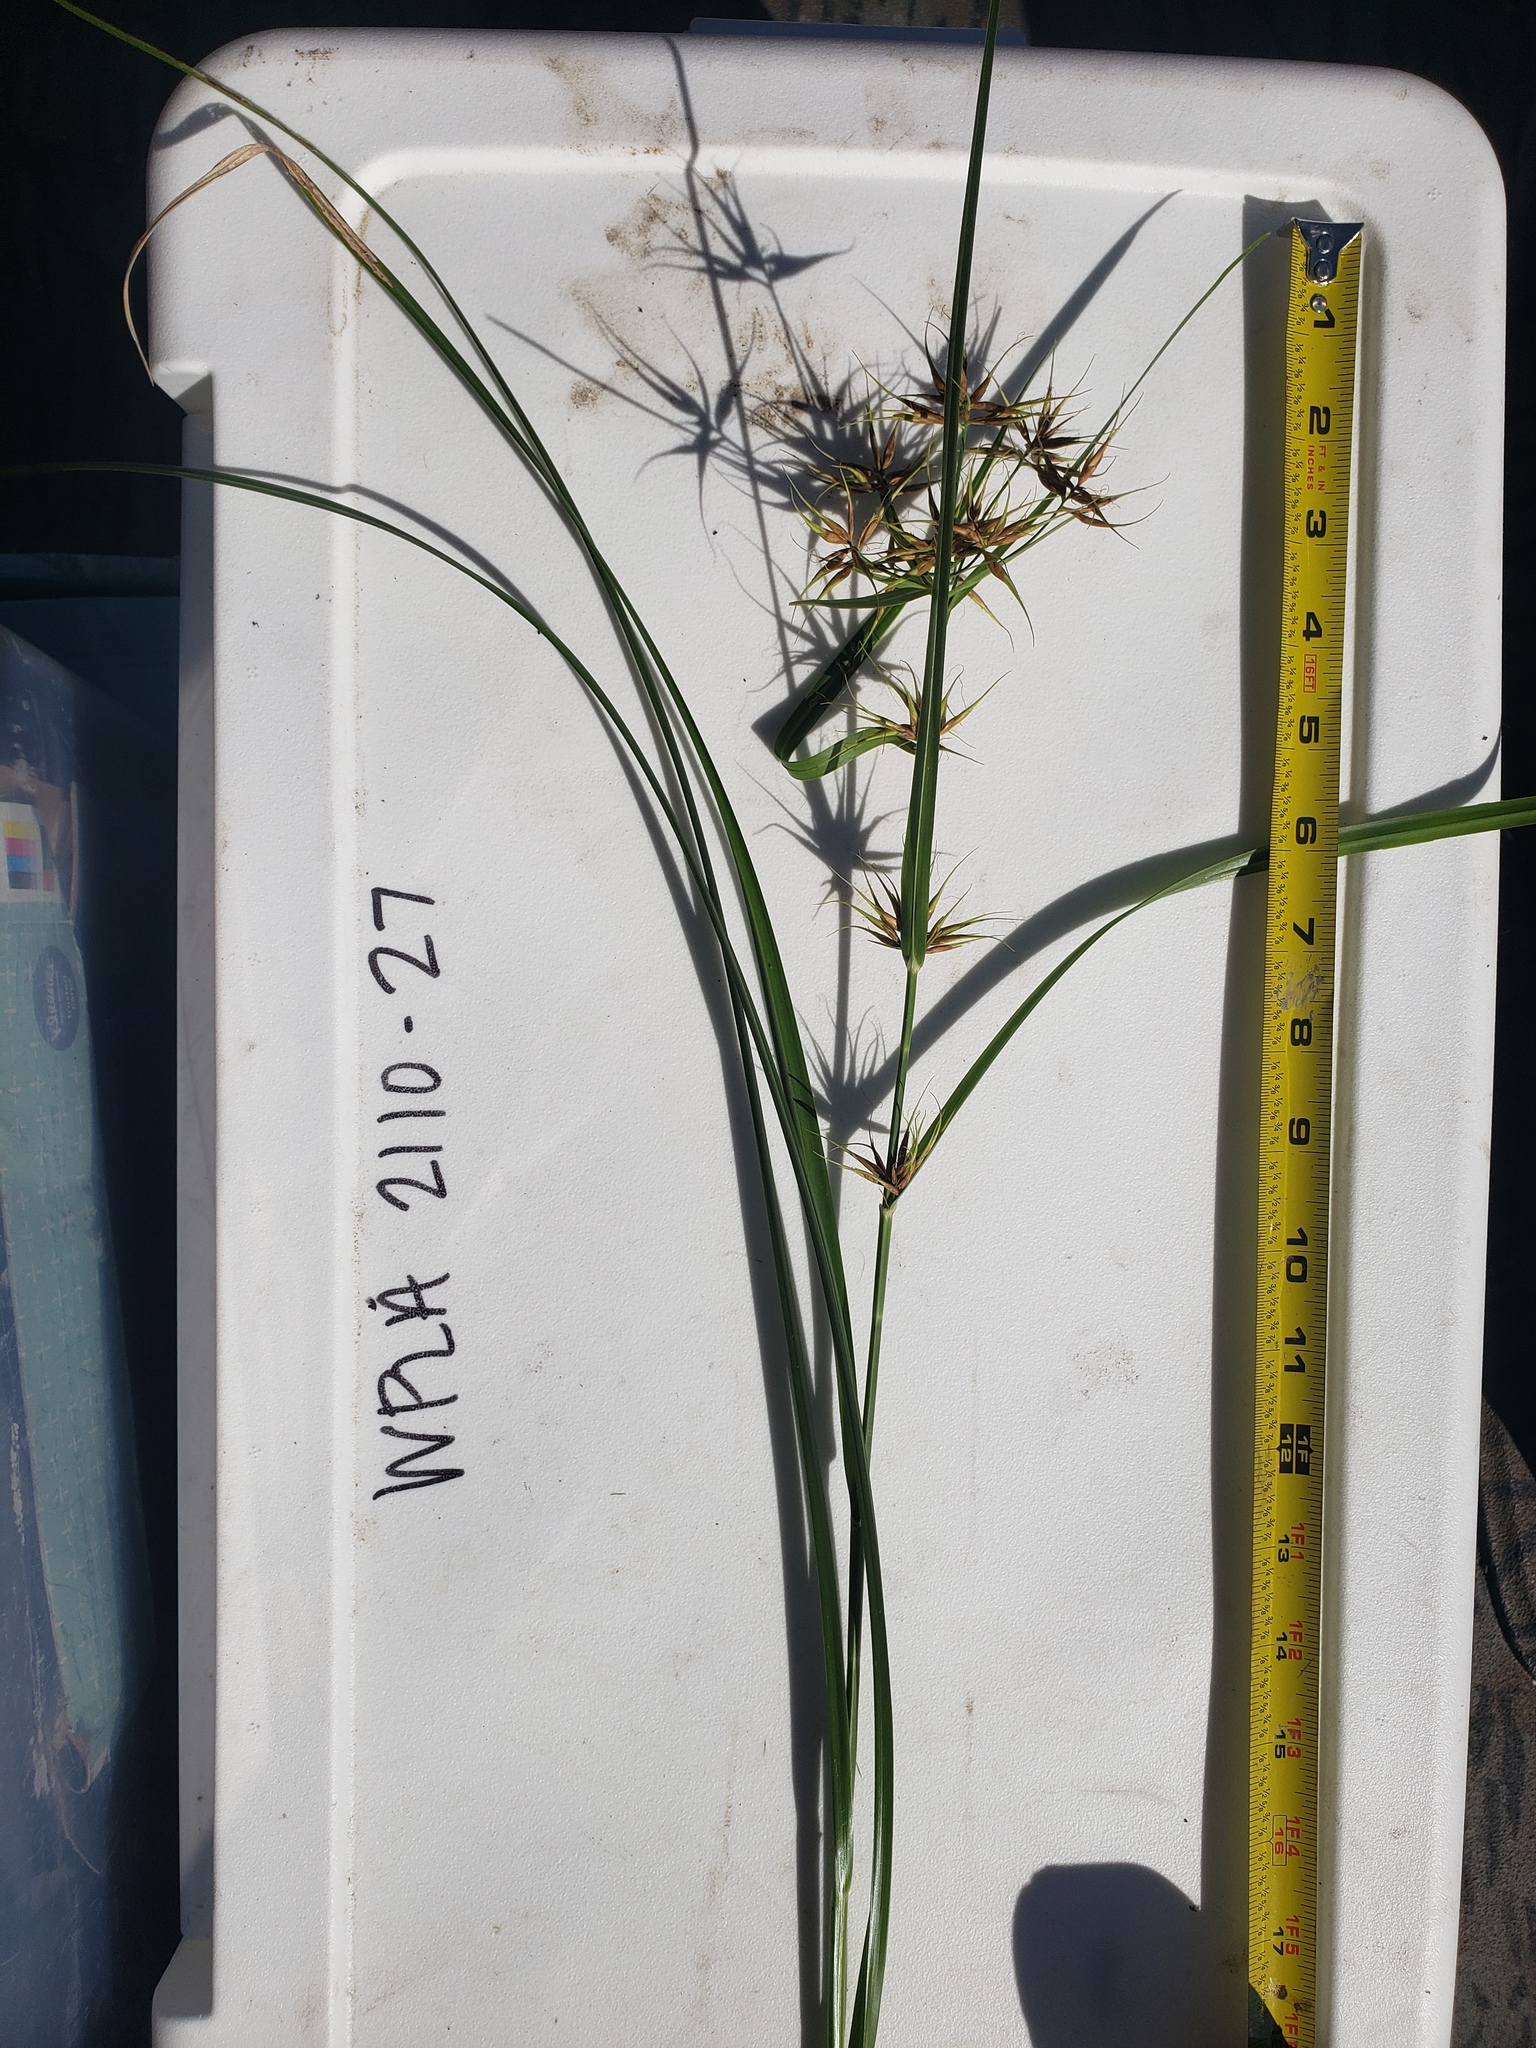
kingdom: Plantae
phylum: Tracheophyta
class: Liliopsida
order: Poales
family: Cyperaceae
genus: Rhynchospora
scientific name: Rhynchospora corniculata
